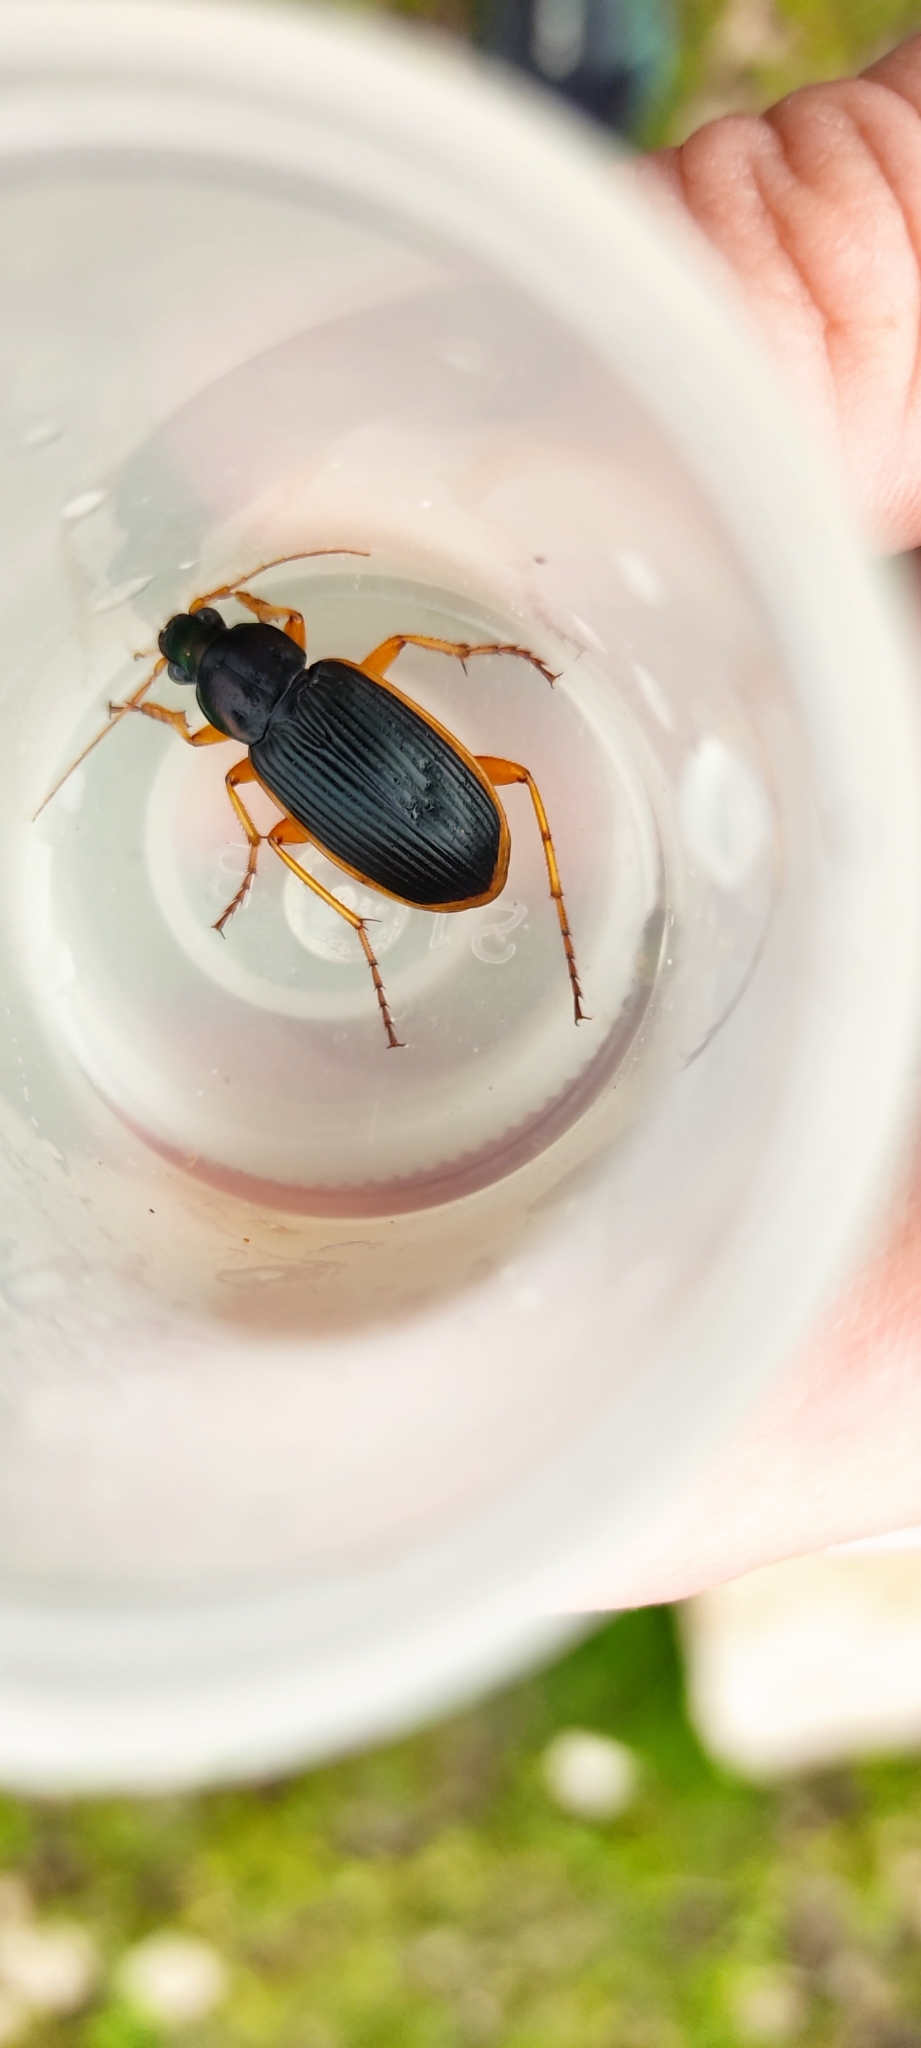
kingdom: Animalia
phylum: Arthropoda
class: Insecta
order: Coleoptera
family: Carabidae
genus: Chlaenius
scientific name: Chlaenius circumscriptus
